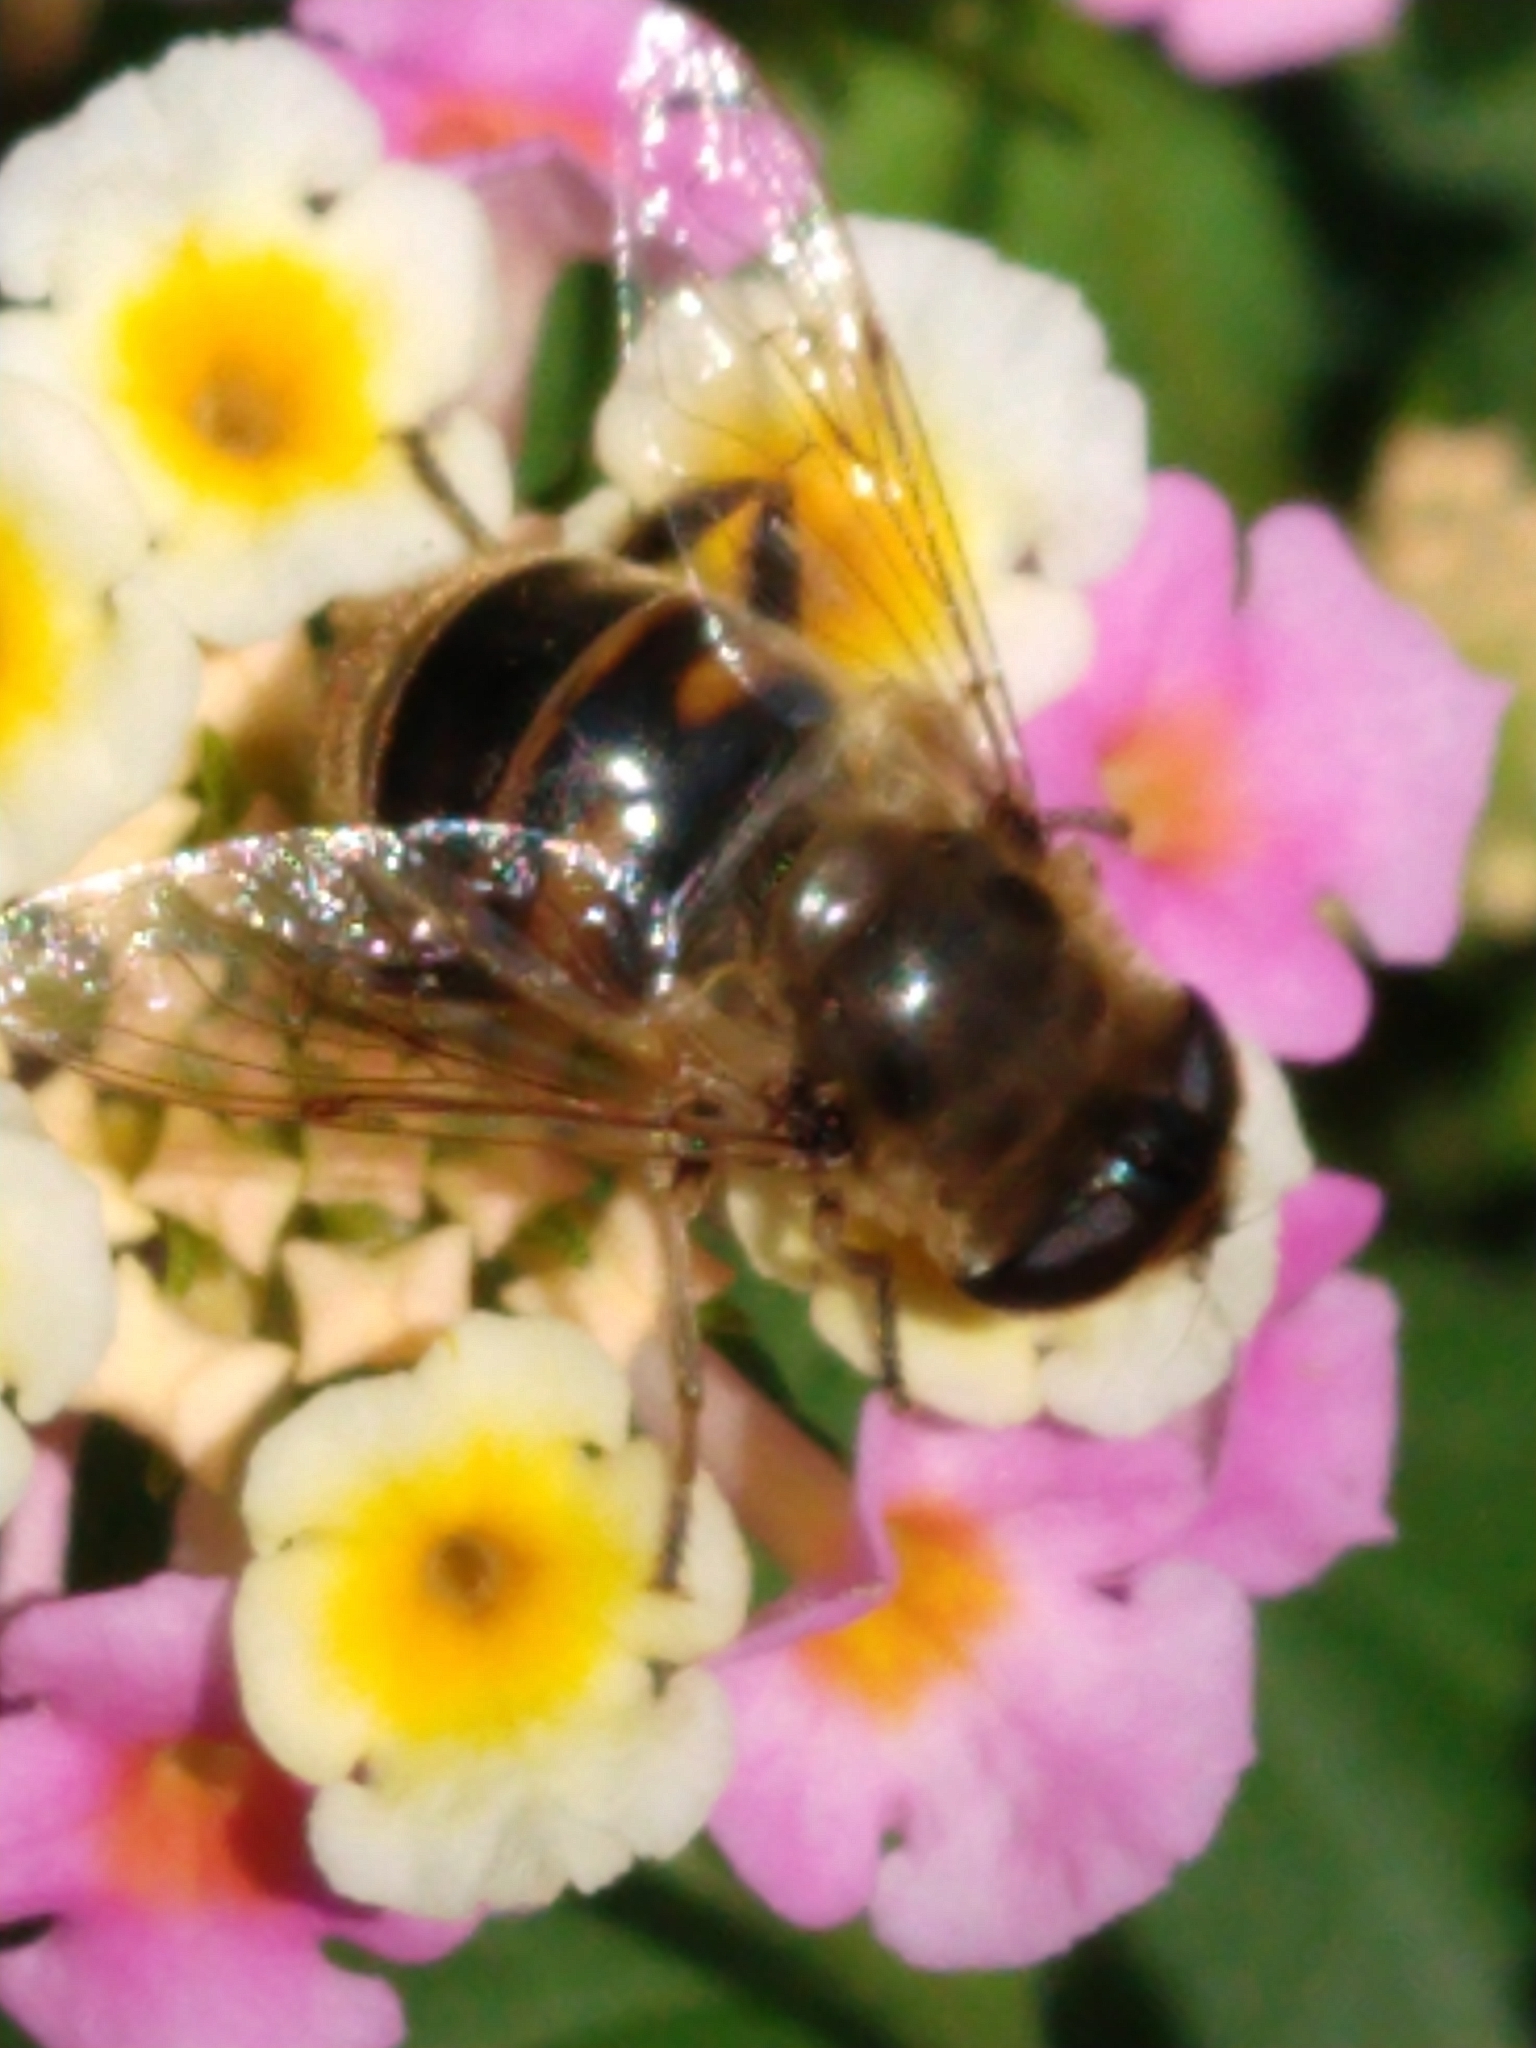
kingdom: Animalia
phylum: Arthropoda
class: Insecta
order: Diptera
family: Syrphidae
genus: Eristalis
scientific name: Eristalis tenax
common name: Drone fly
